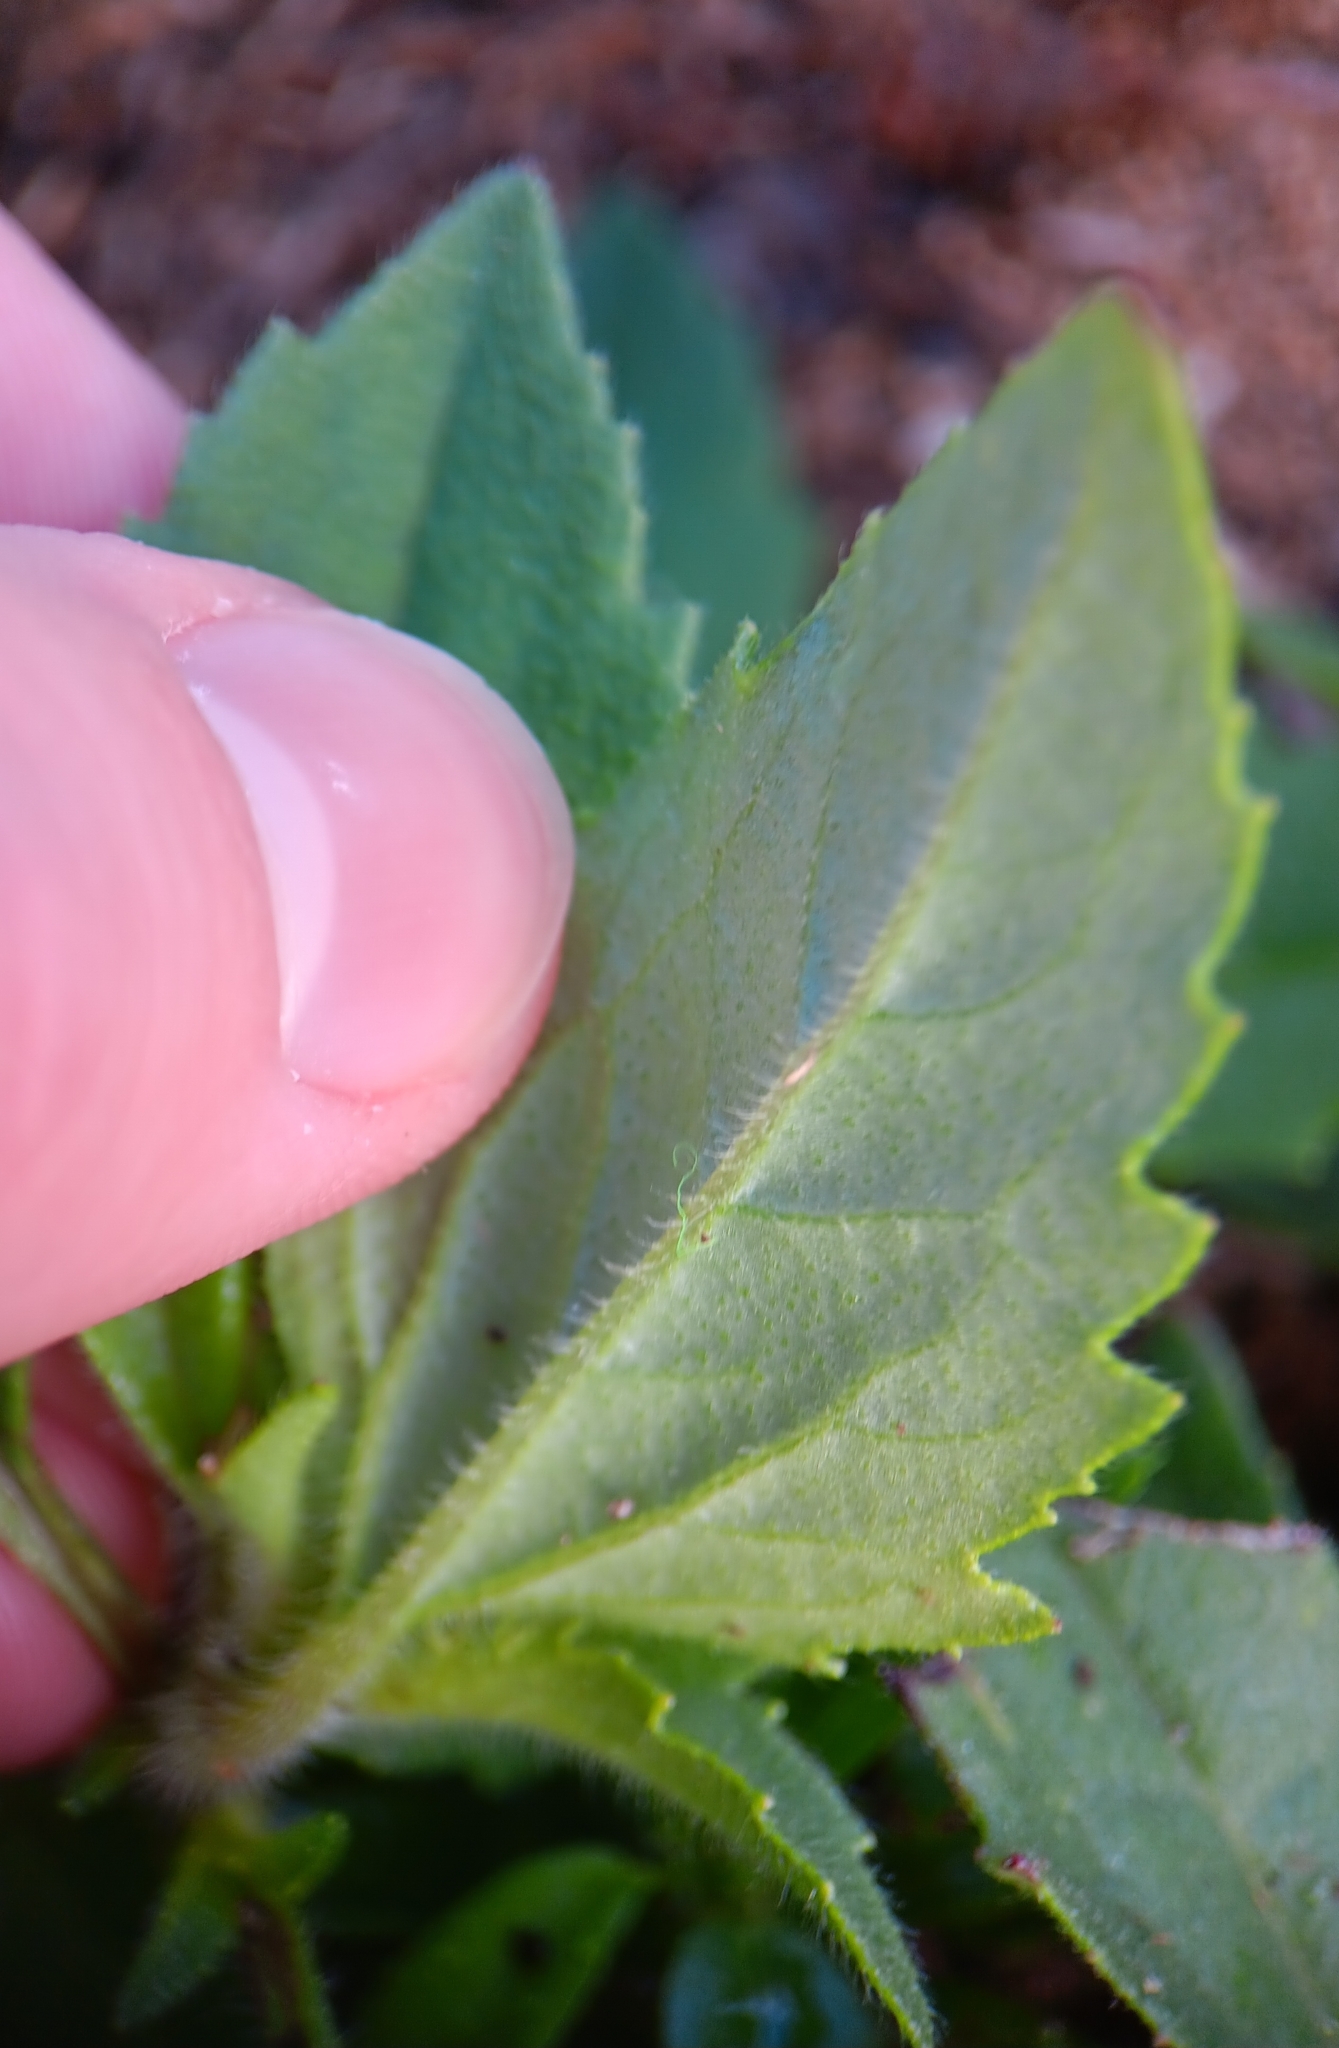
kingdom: Plantae
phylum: Tracheophyta
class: Magnoliopsida
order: Asterales
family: Asteraceae
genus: Tridax
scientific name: Tridax procumbens
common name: Coatbuttons
